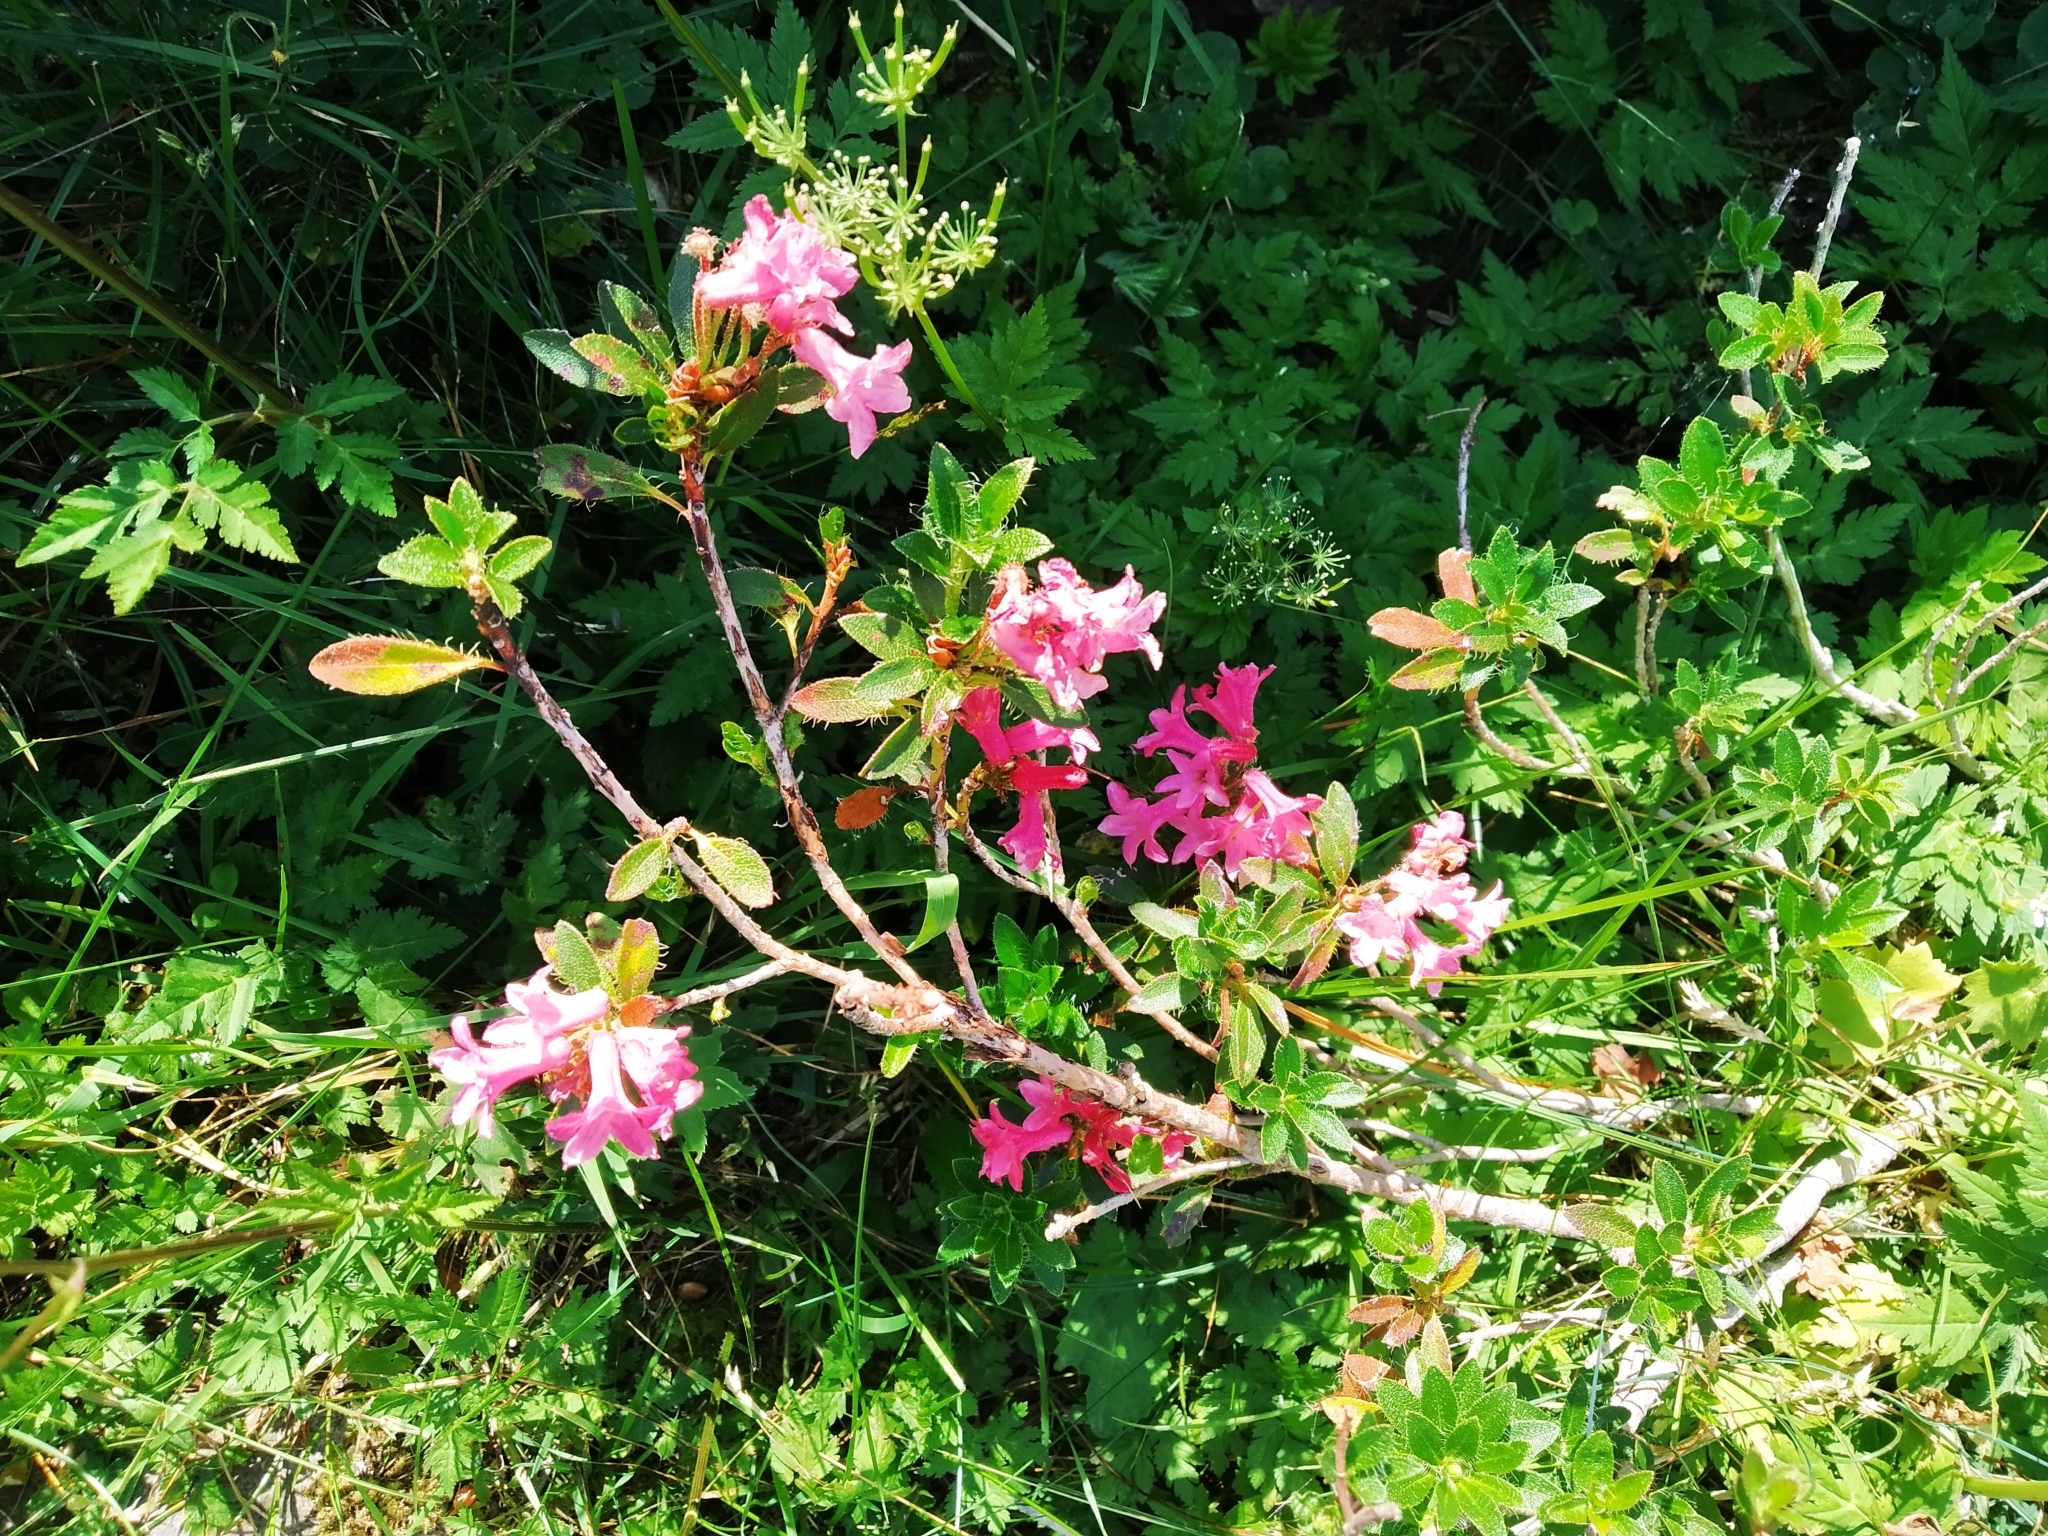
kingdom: Plantae
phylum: Tracheophyta
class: Magnoliopsida
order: Ericales
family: Ericaceae
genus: Rhododendron
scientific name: Rhododendron hirsutum
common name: Hairy alpenrose
